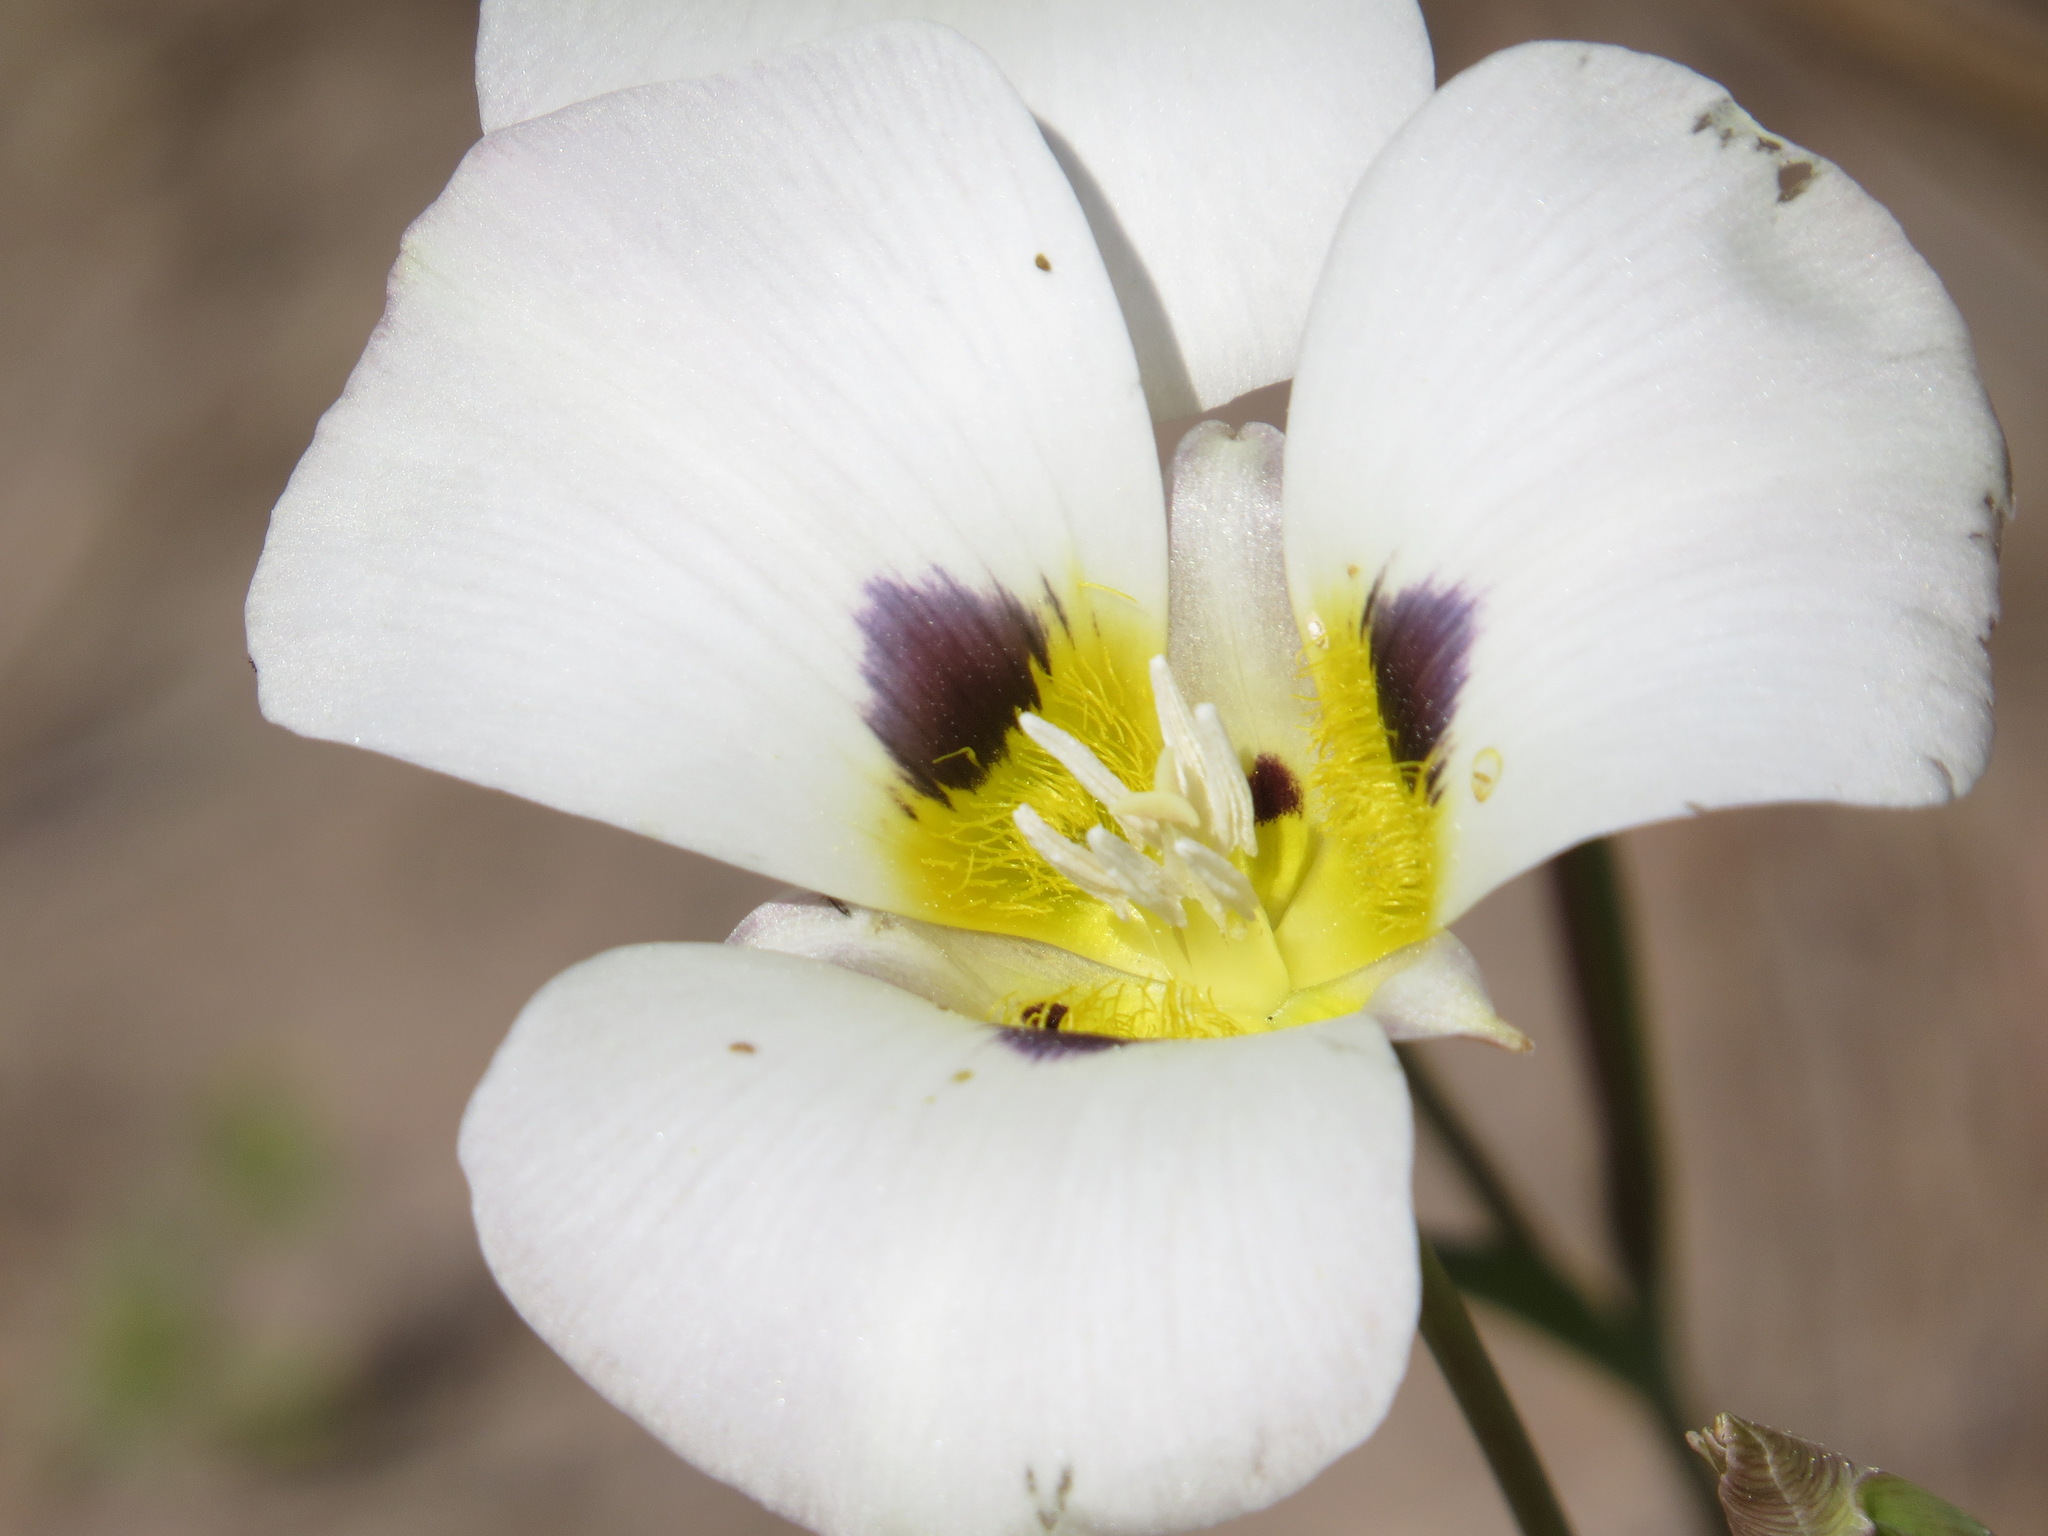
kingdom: Plantae
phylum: Tracheophyta
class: Liliopsida
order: Liliales
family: Liliaceae
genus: Calochortus
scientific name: Calochortus leichtlinii
